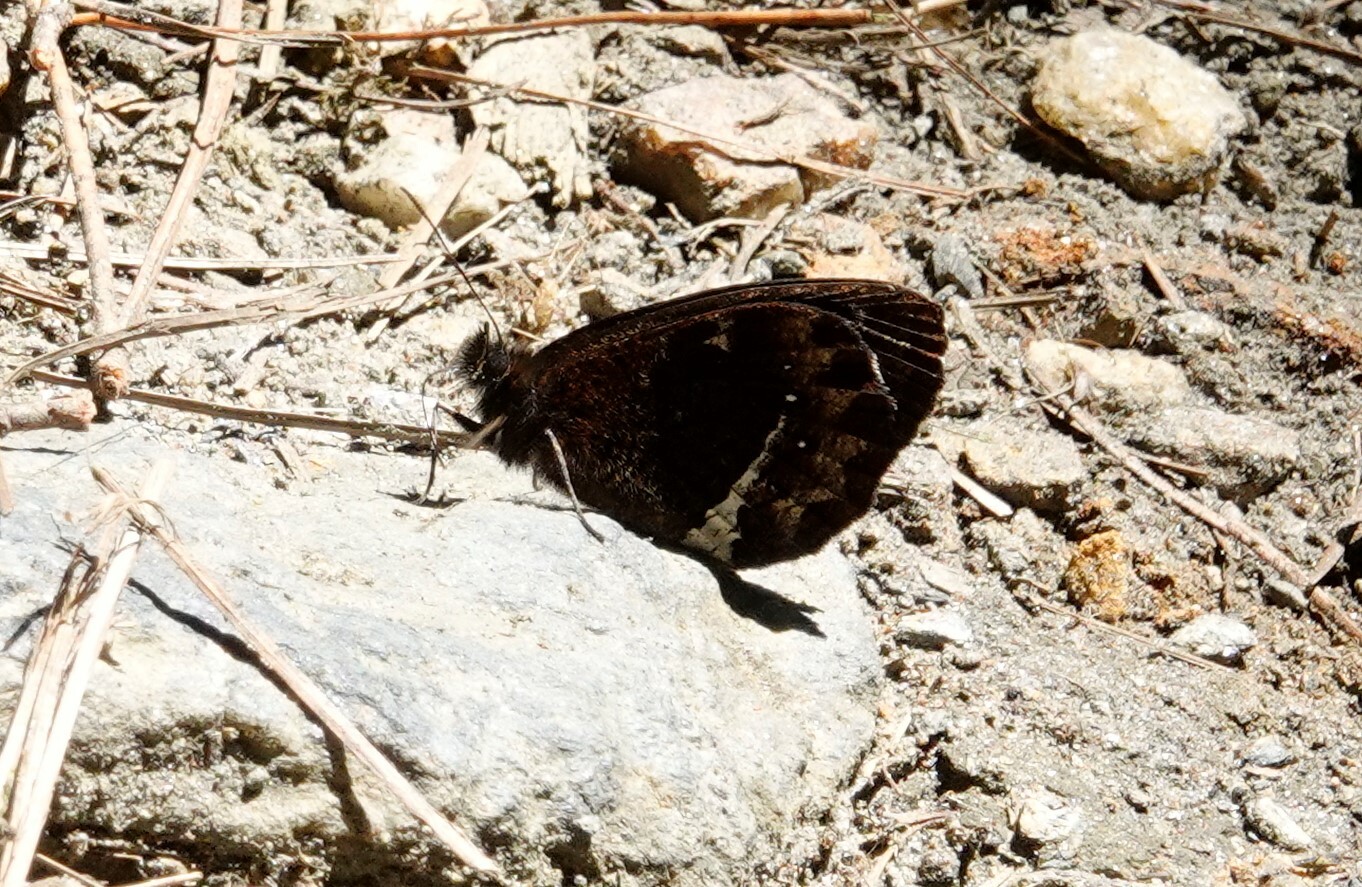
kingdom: Animalia
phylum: Arthropoda
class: Insecta
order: Lepidoptera
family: Nymphalidae
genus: Pedaliodes
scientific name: Pedaliodes phazania
